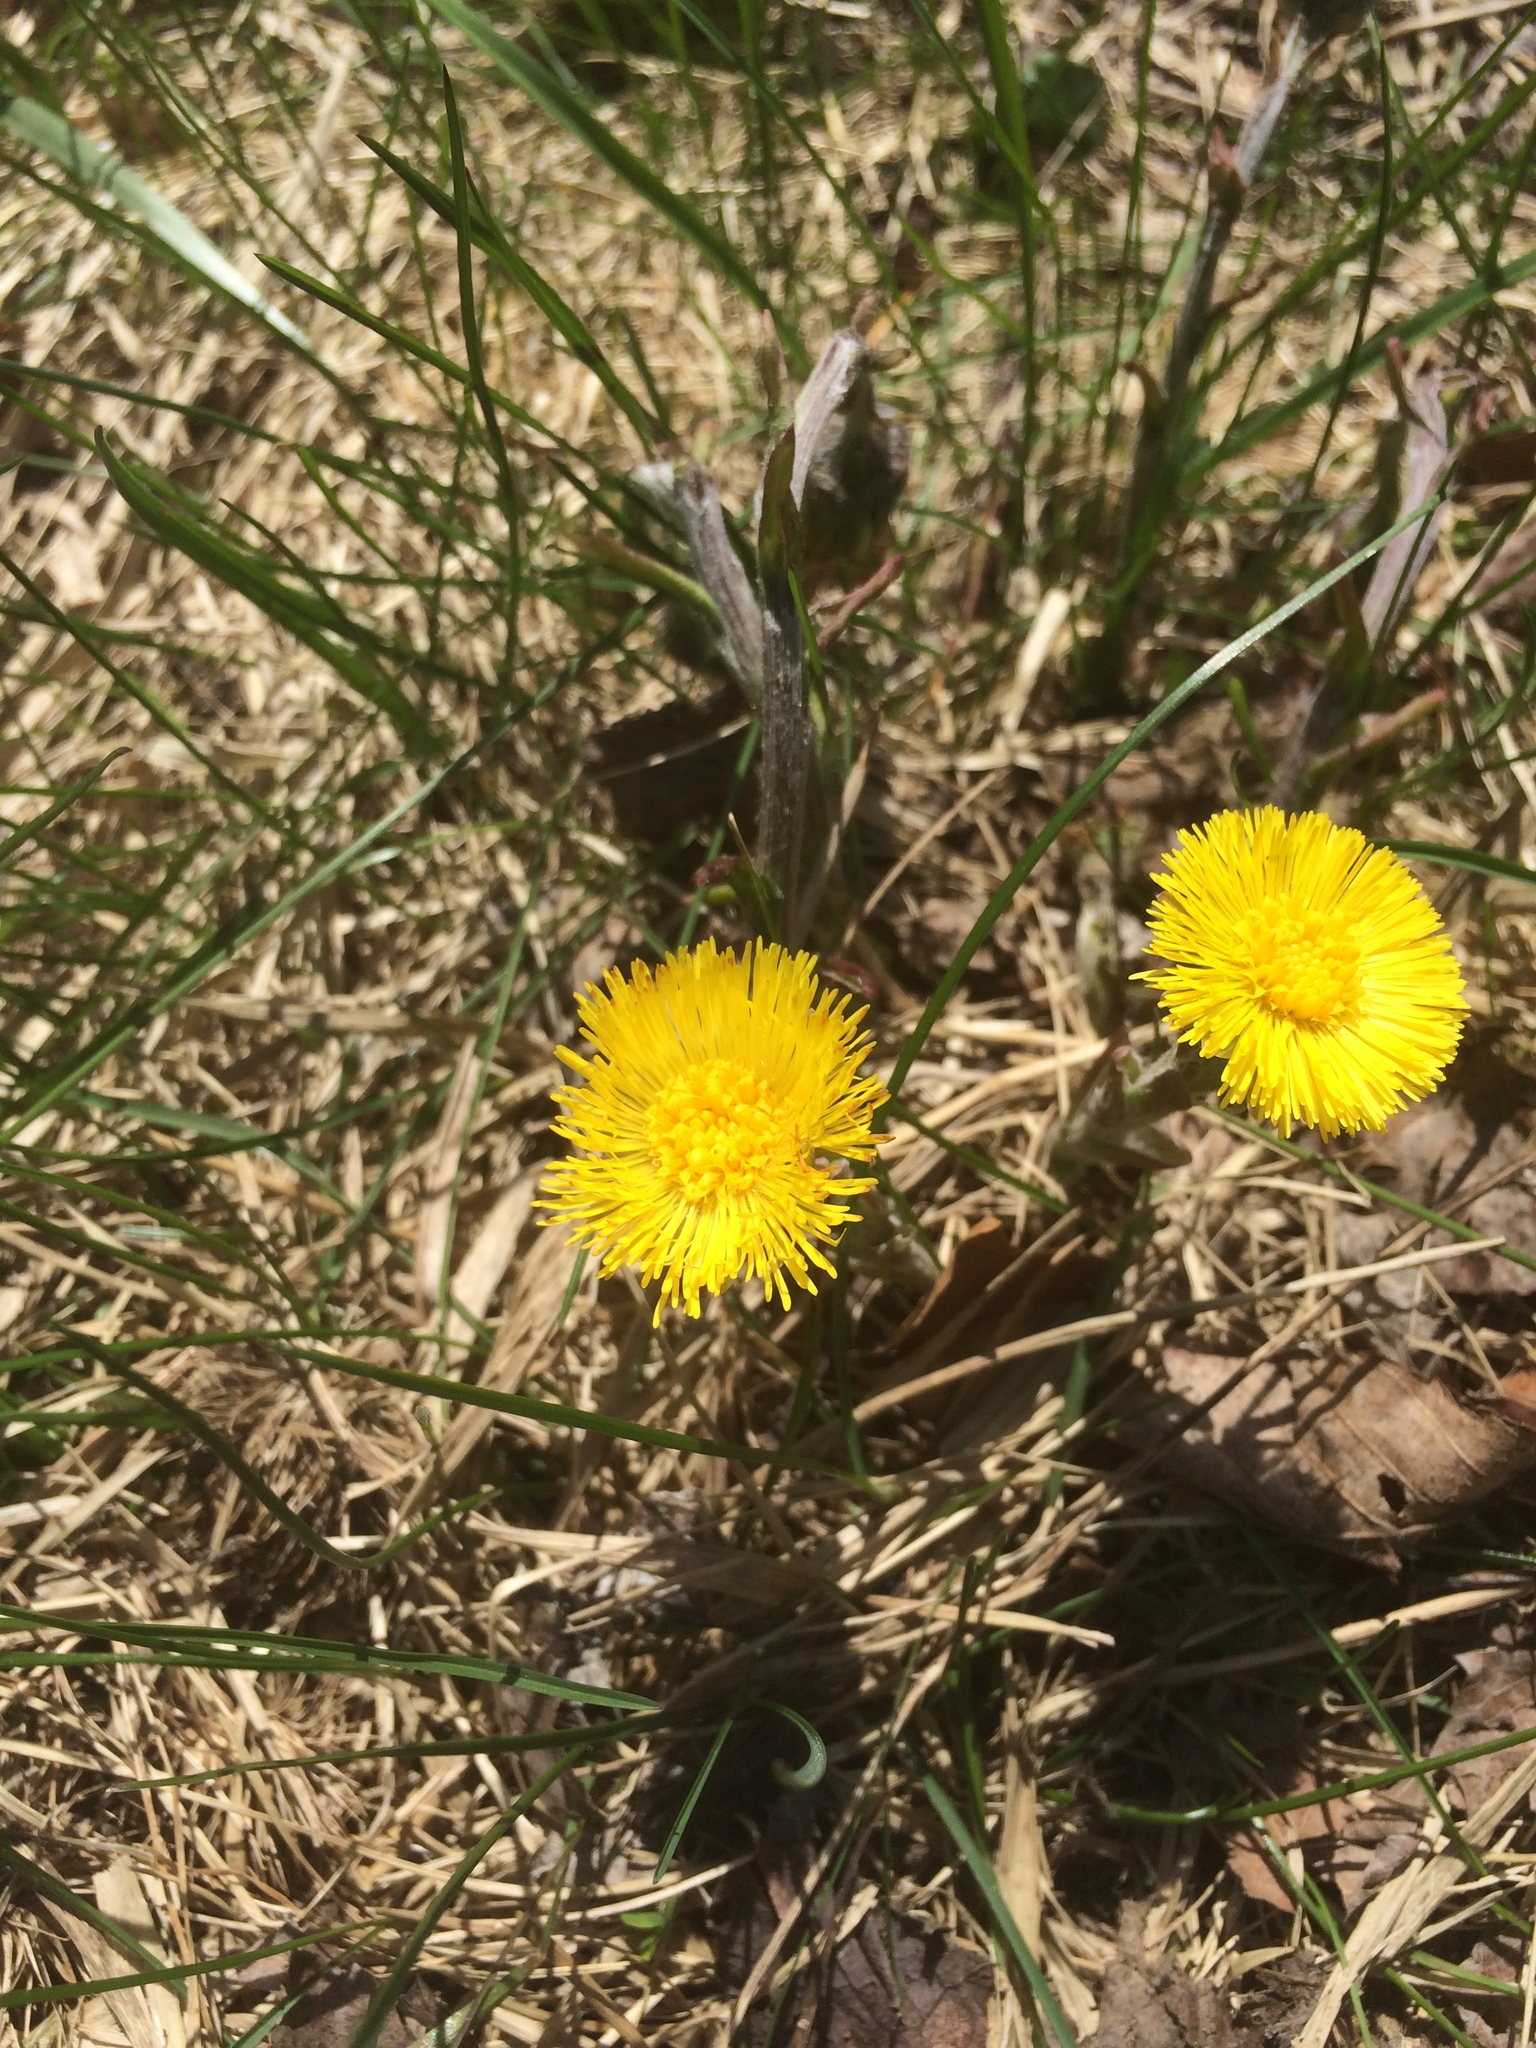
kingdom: Plantae
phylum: Tracheophyta
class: Magnoliopsida
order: Asterales
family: Asteraceae
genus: Tussilago
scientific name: Tussilago farfara
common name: Coltsfoot
